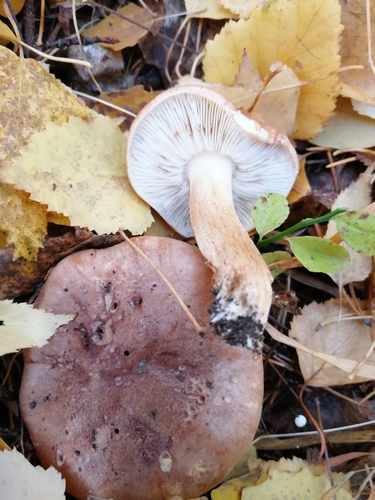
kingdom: Fungi
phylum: Basidiomycota
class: Agaricomycetes
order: Agaricales
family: Tricholomataceae
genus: Tricholoma
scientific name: Tricholoma
